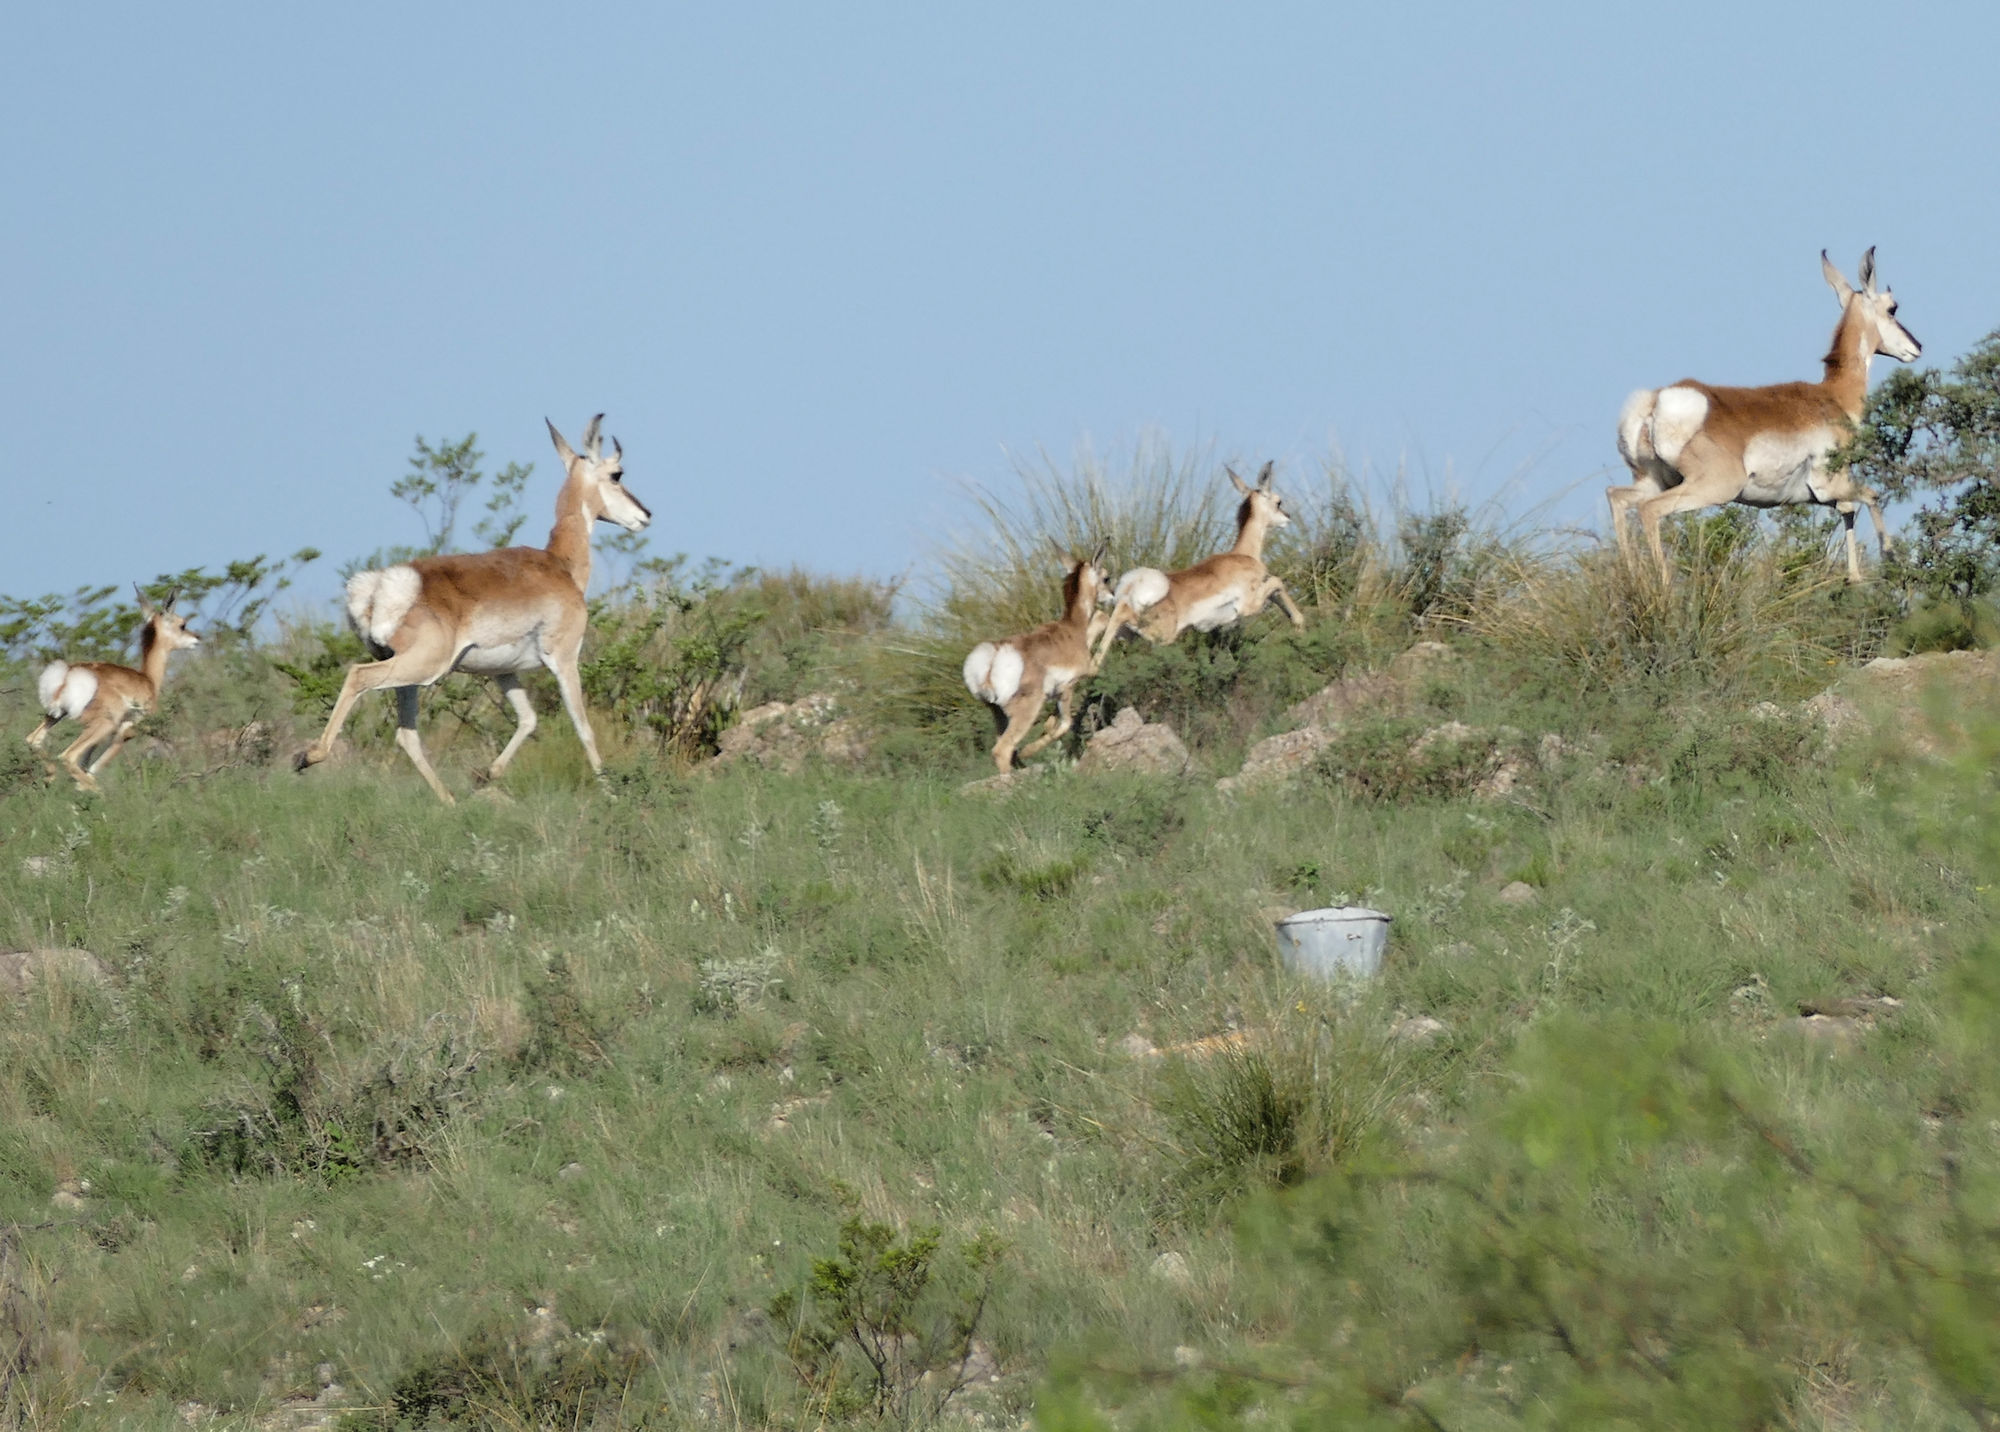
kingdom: Animalia
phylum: Chordata
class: Mammalia
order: Artiodactyla
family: Antilocapridae
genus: Antilocapra
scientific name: Antilocapra americana
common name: Pronghorn
